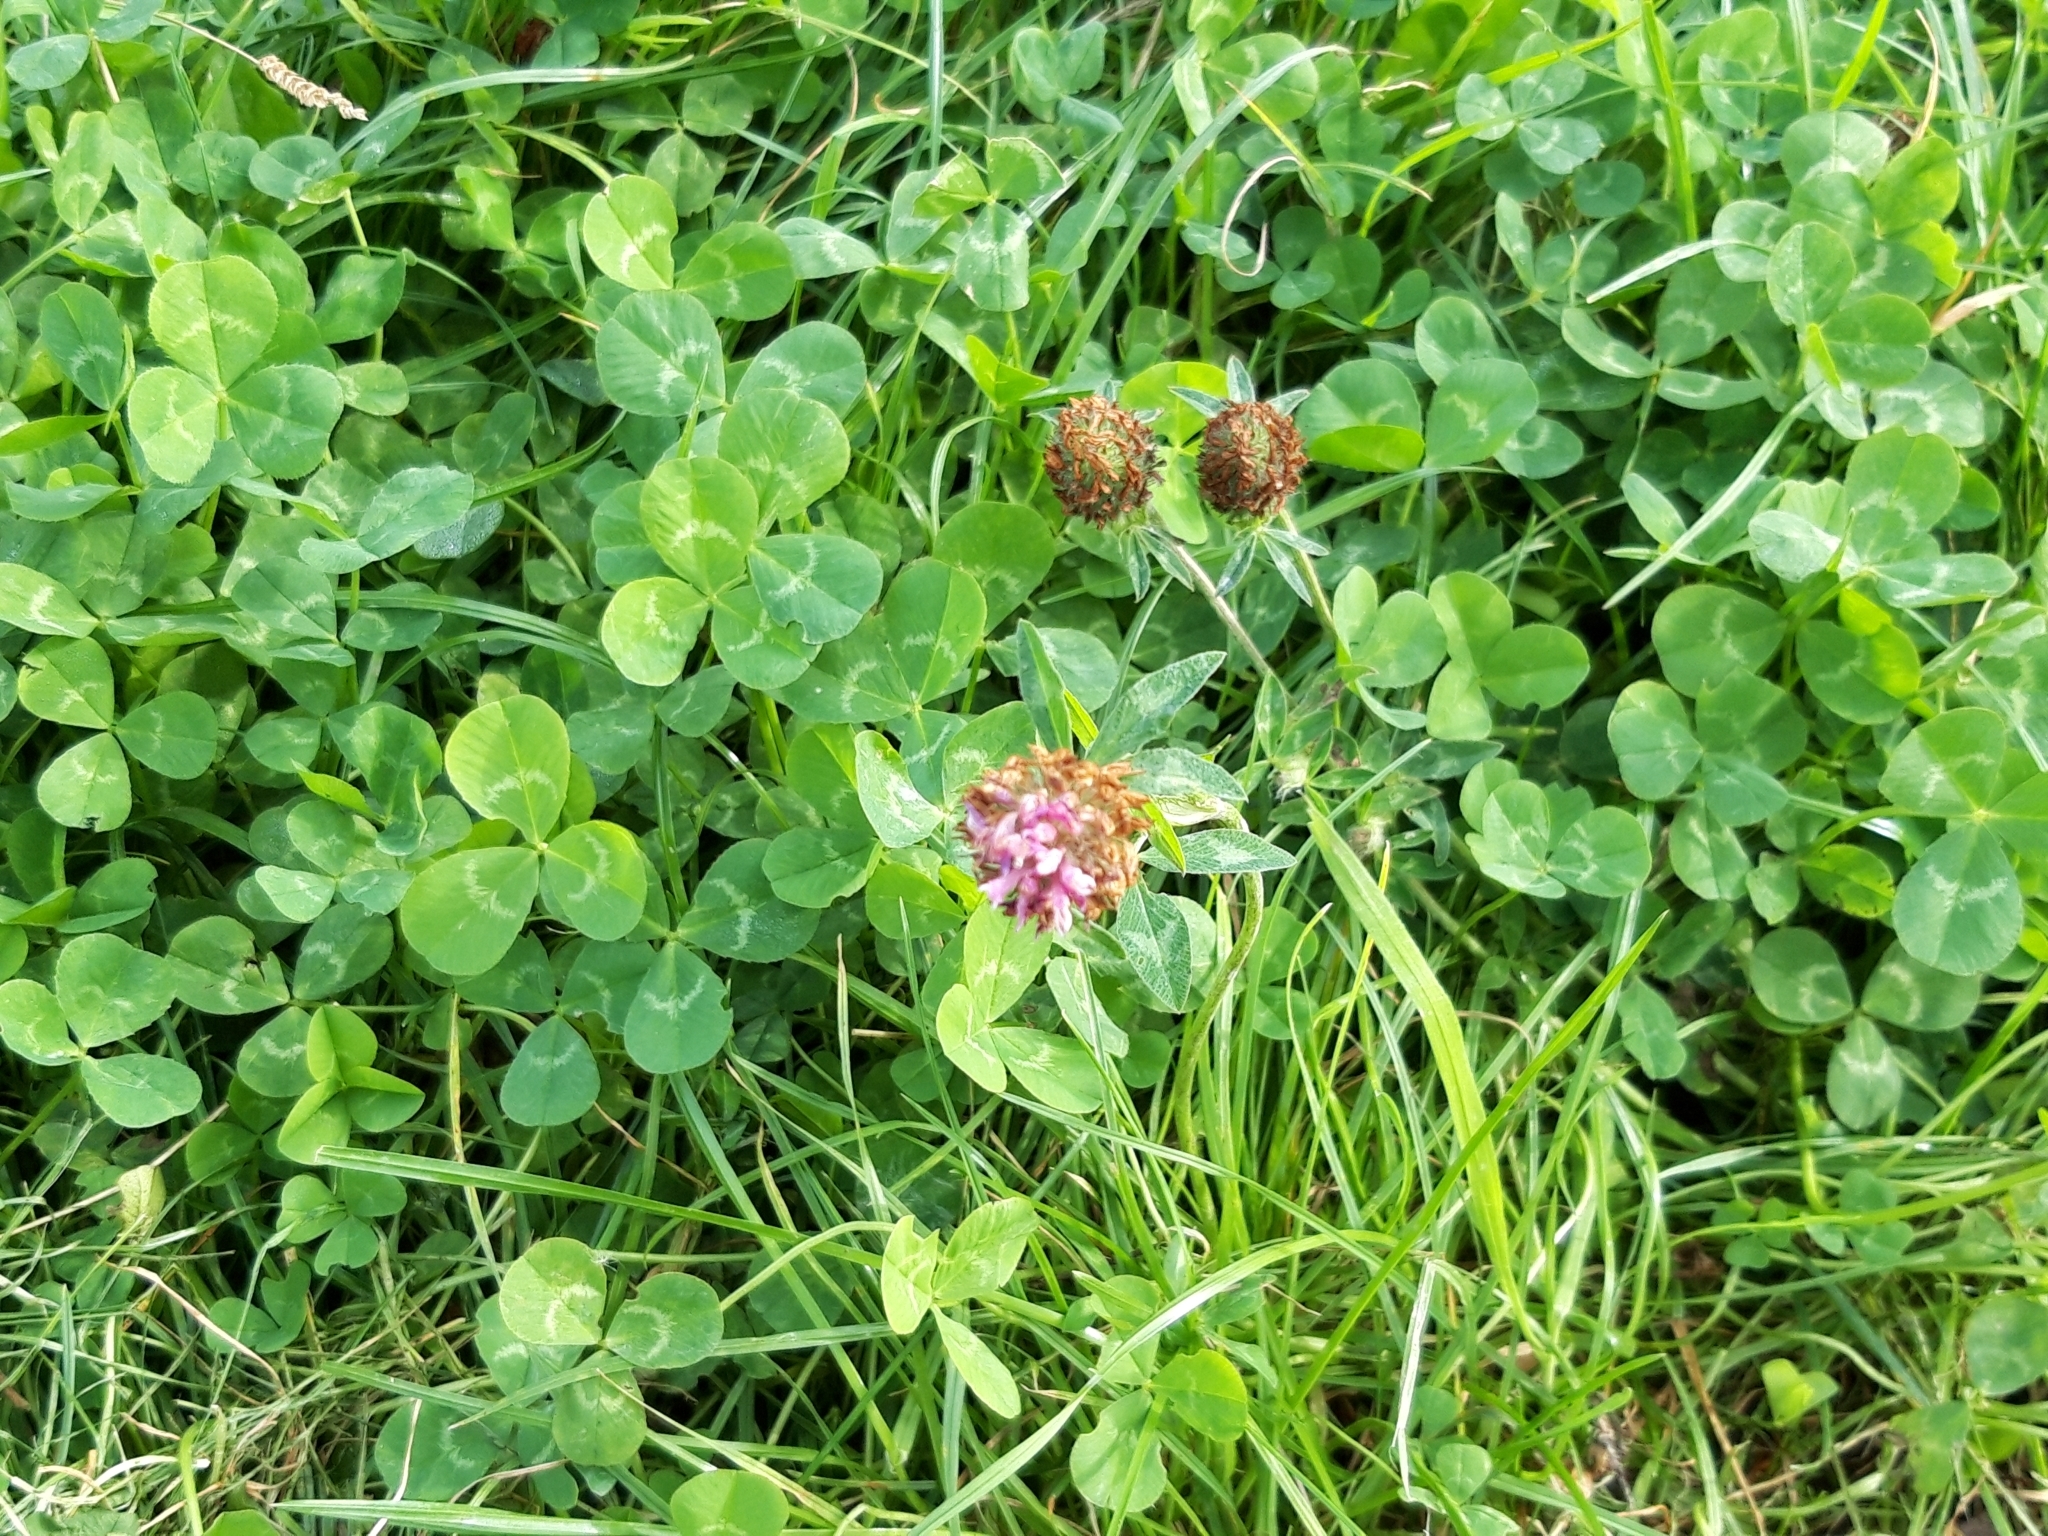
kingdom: Plantae
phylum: Tracheophyta
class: Magnoliopsida
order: Fabales
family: Fabaceae
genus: Trifolium
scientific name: Trifolium pratense
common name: Red clover
